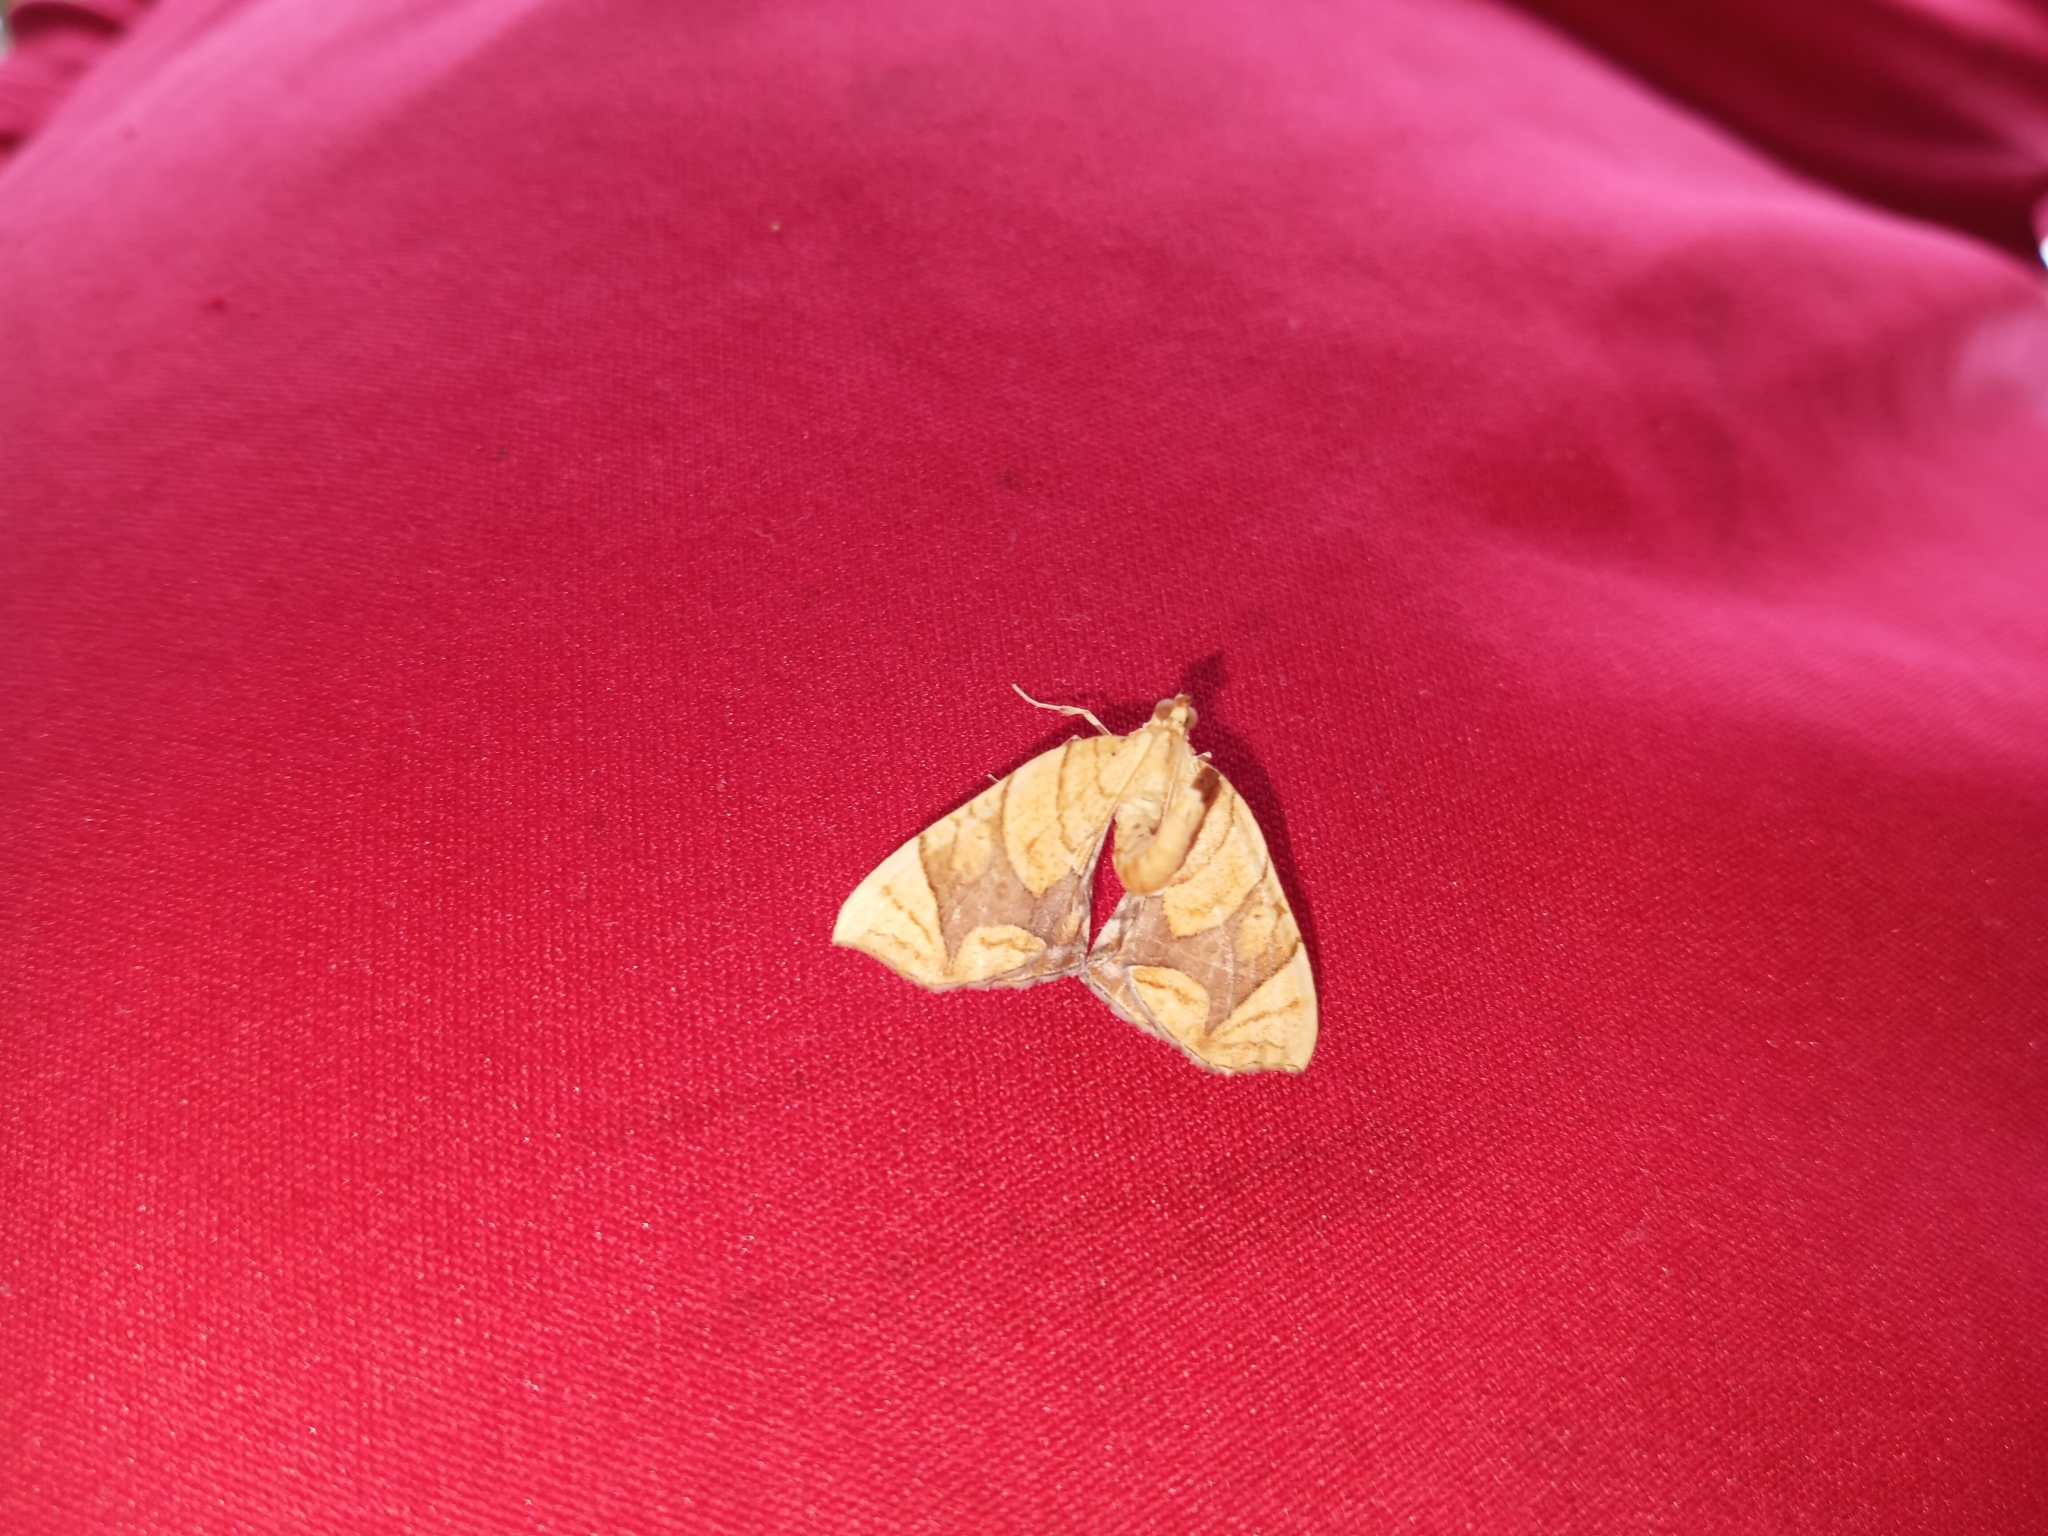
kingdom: Animalia
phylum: Arthropoda
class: Insecta
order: Lepidoptera
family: Geometridae
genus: Eulithis
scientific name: Eulithis
